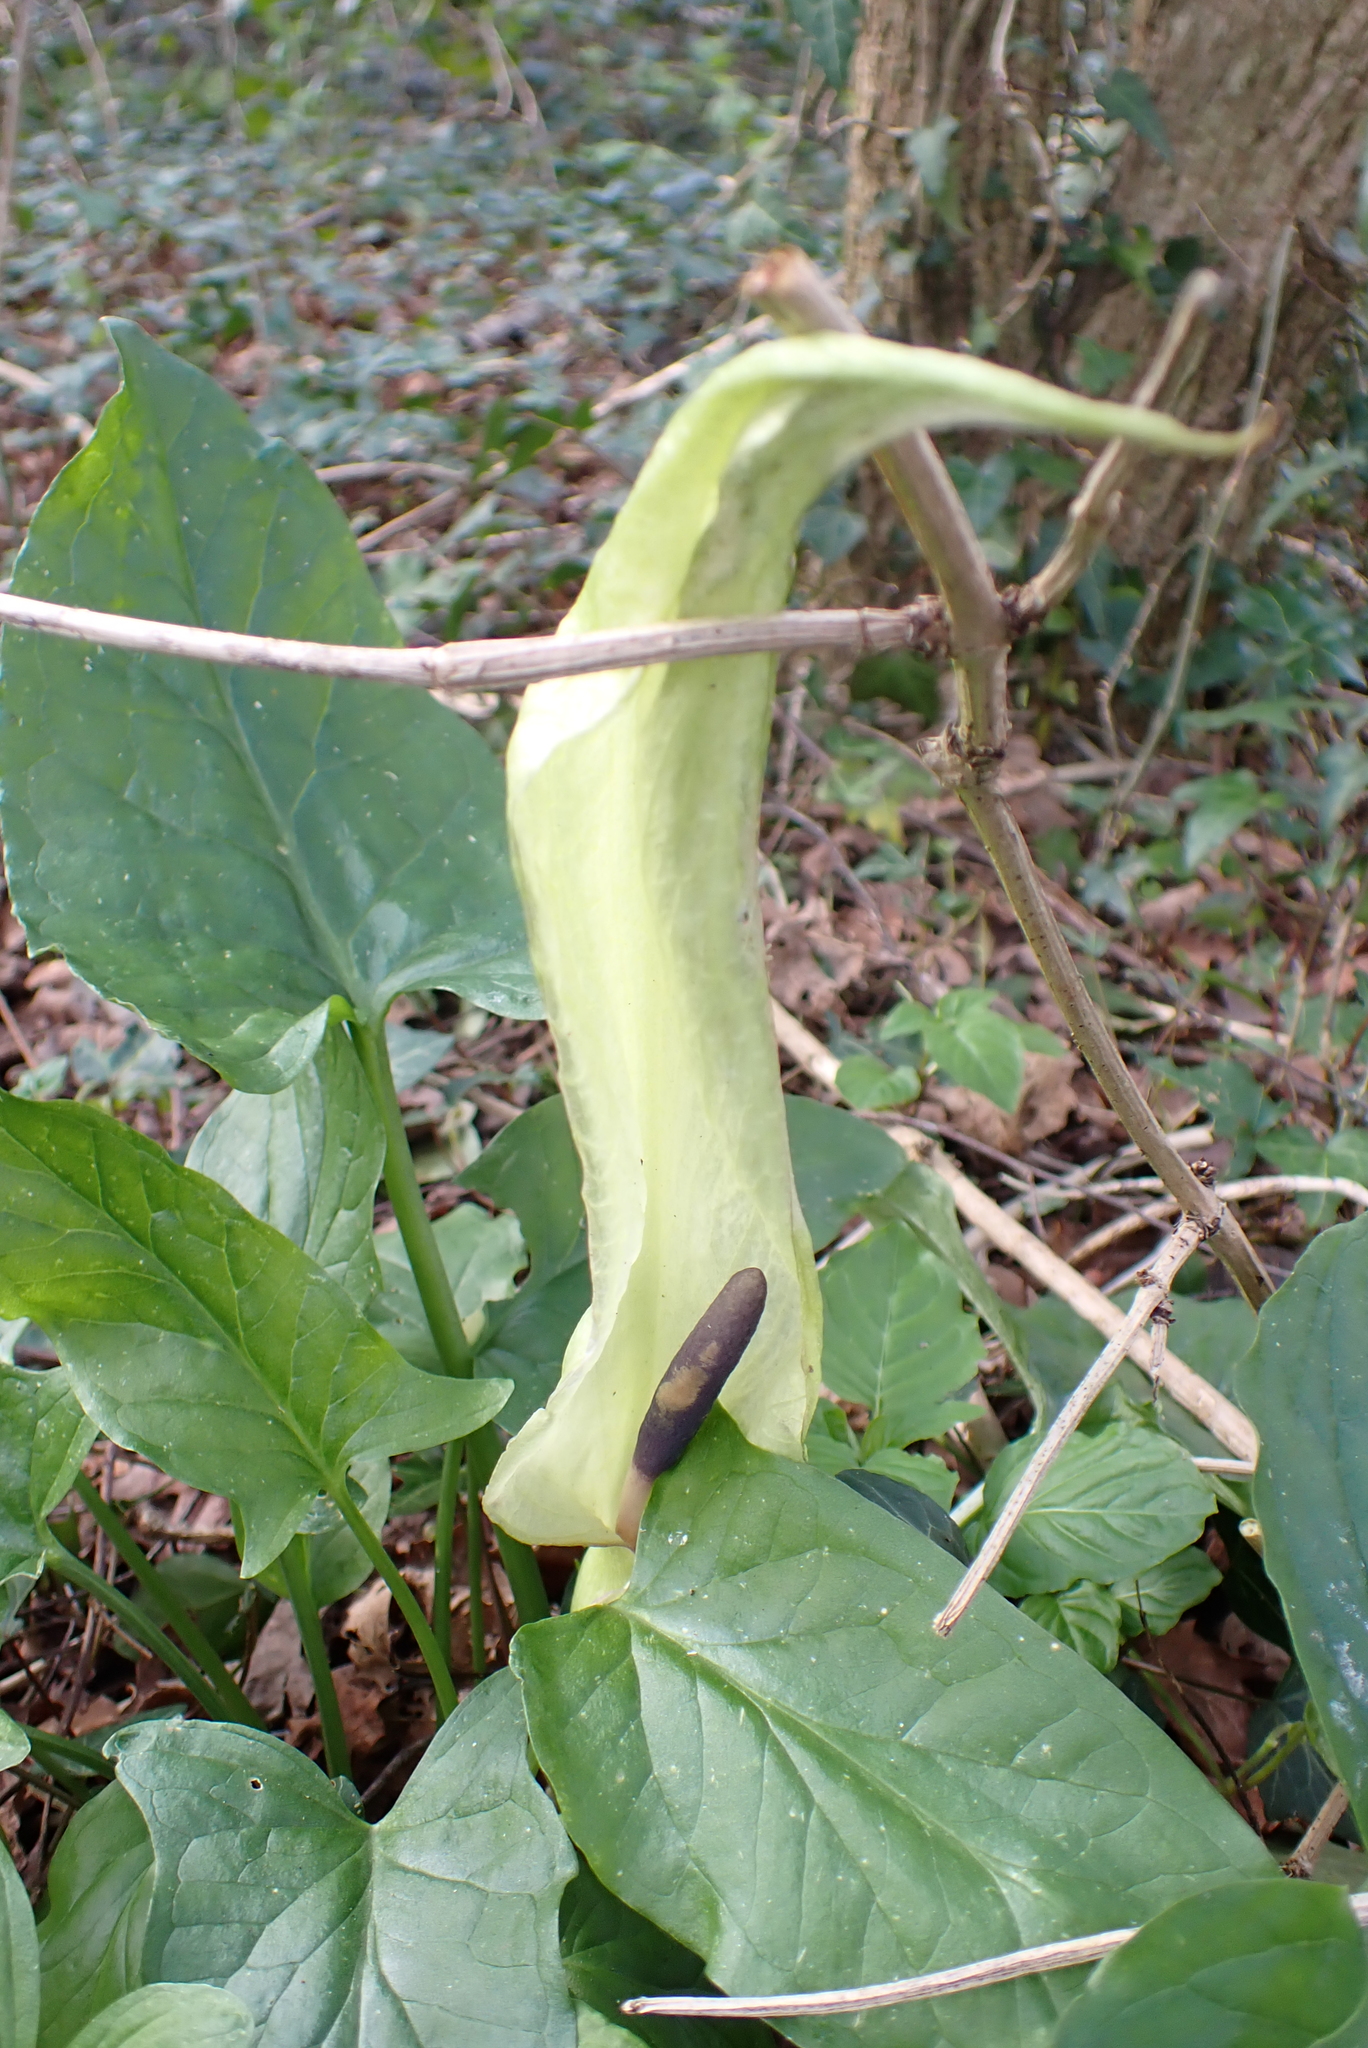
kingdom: Plantae
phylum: Tracheophyta
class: Liliopsida
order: Alismatales
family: Araceae
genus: Arum
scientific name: Arum maculatum
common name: Lords-and-ladies
